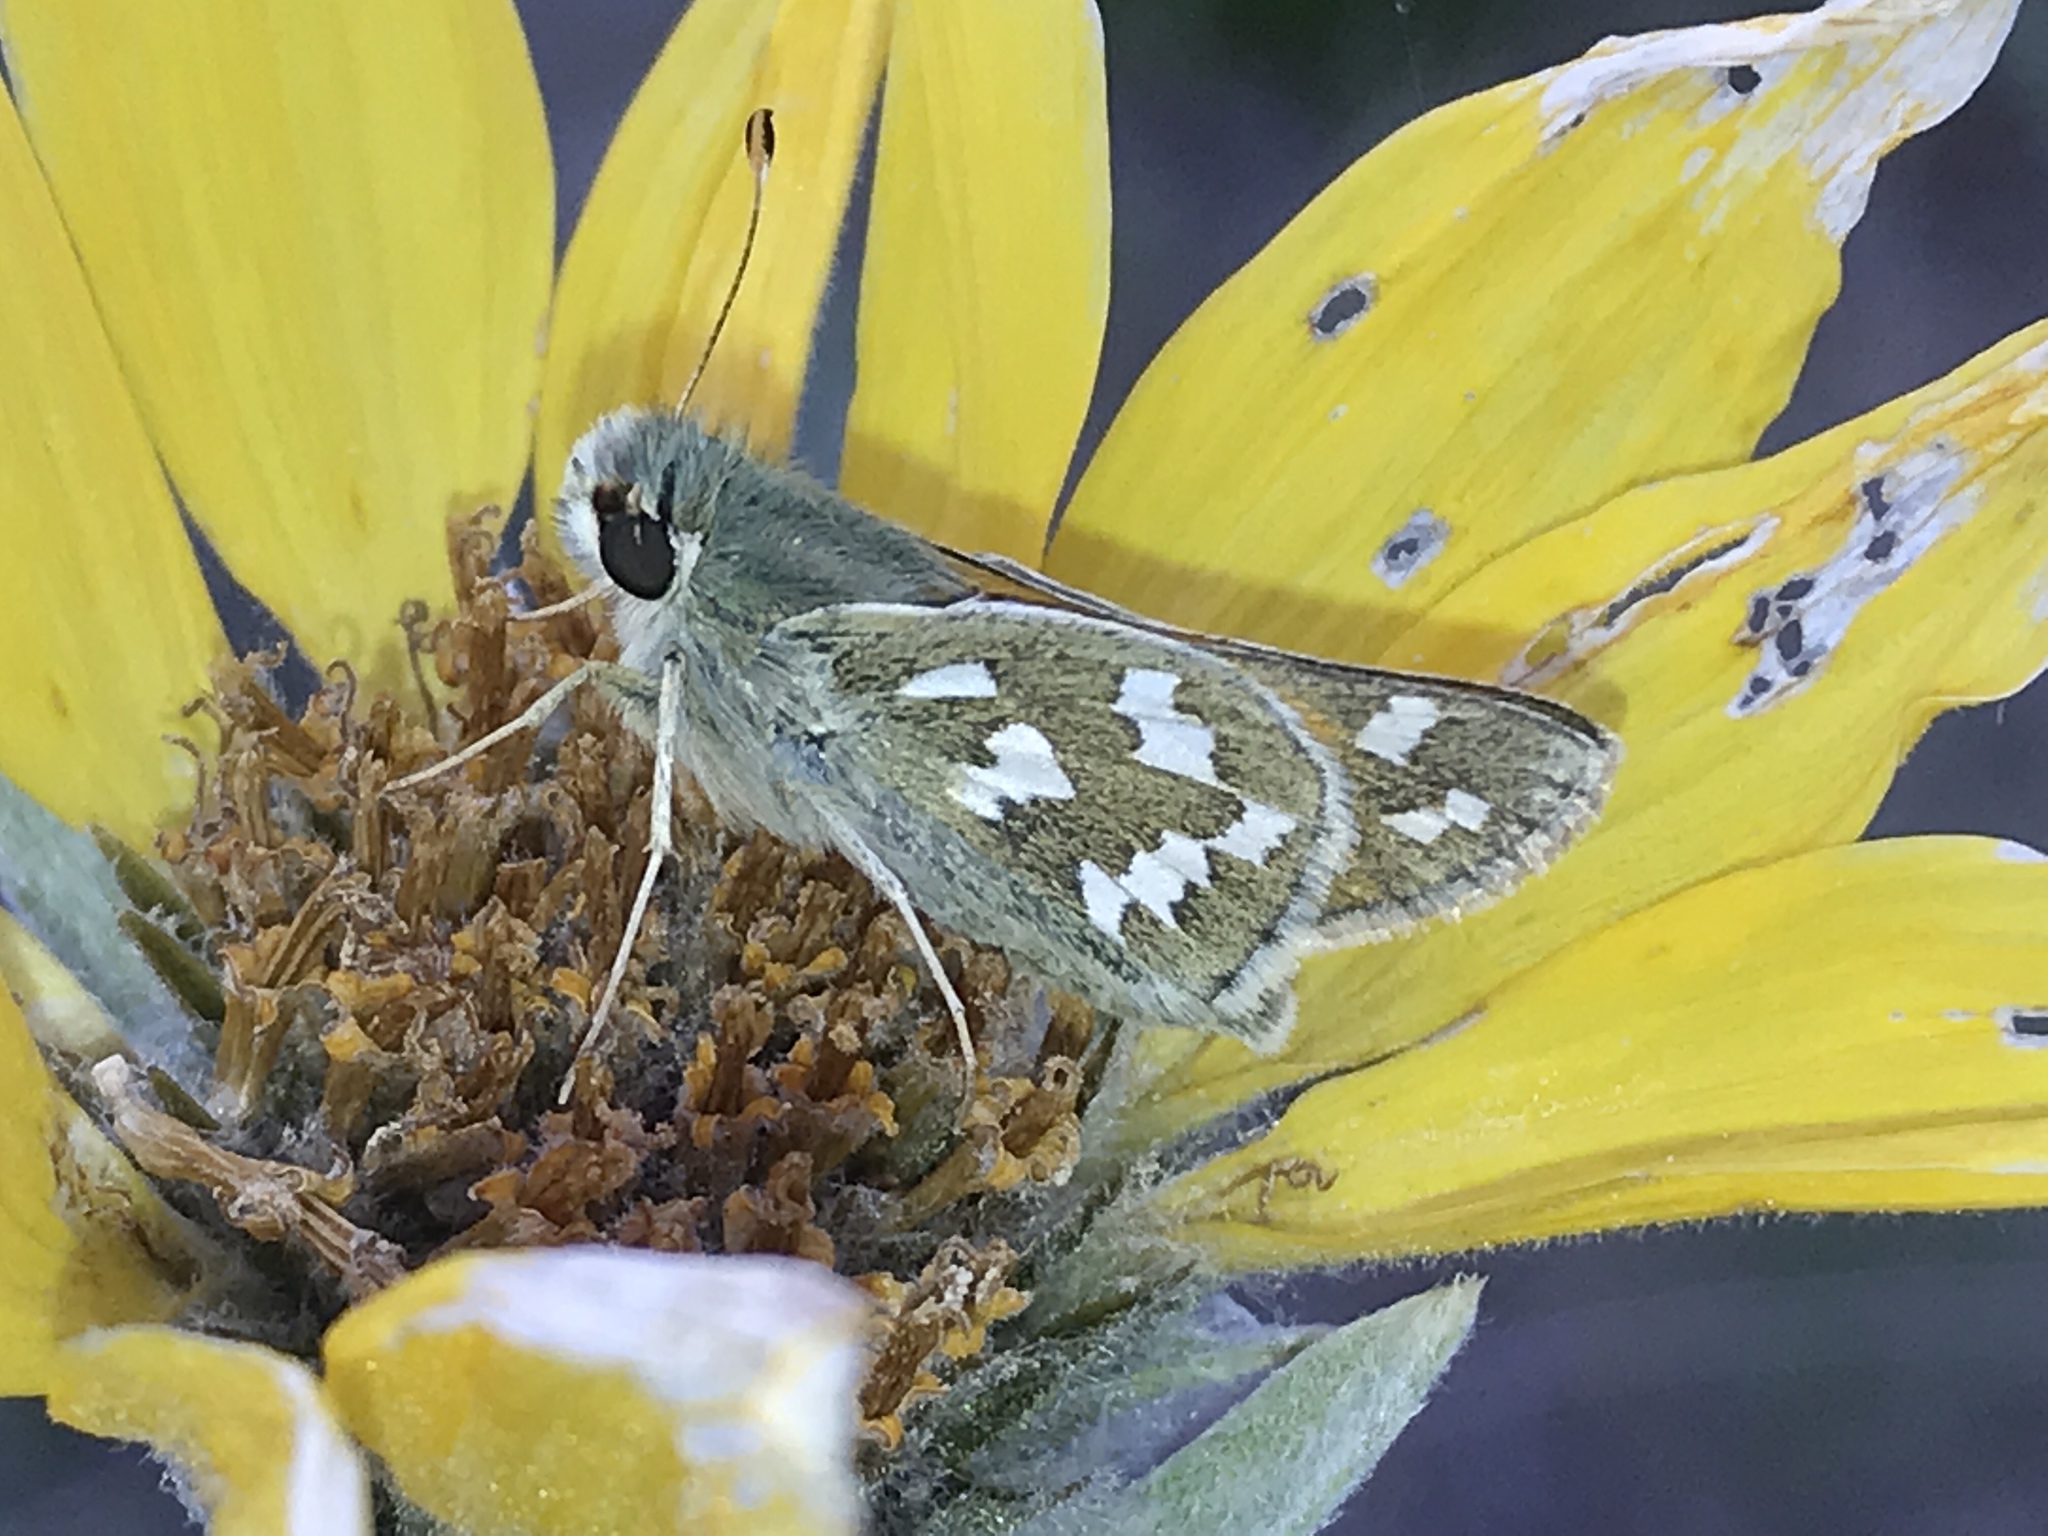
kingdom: Animalia
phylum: Arthropoda
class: Insecta
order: Lepidoptera
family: Hesperiidae
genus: Hesperia
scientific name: Hesperia juba
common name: Juba skipper
